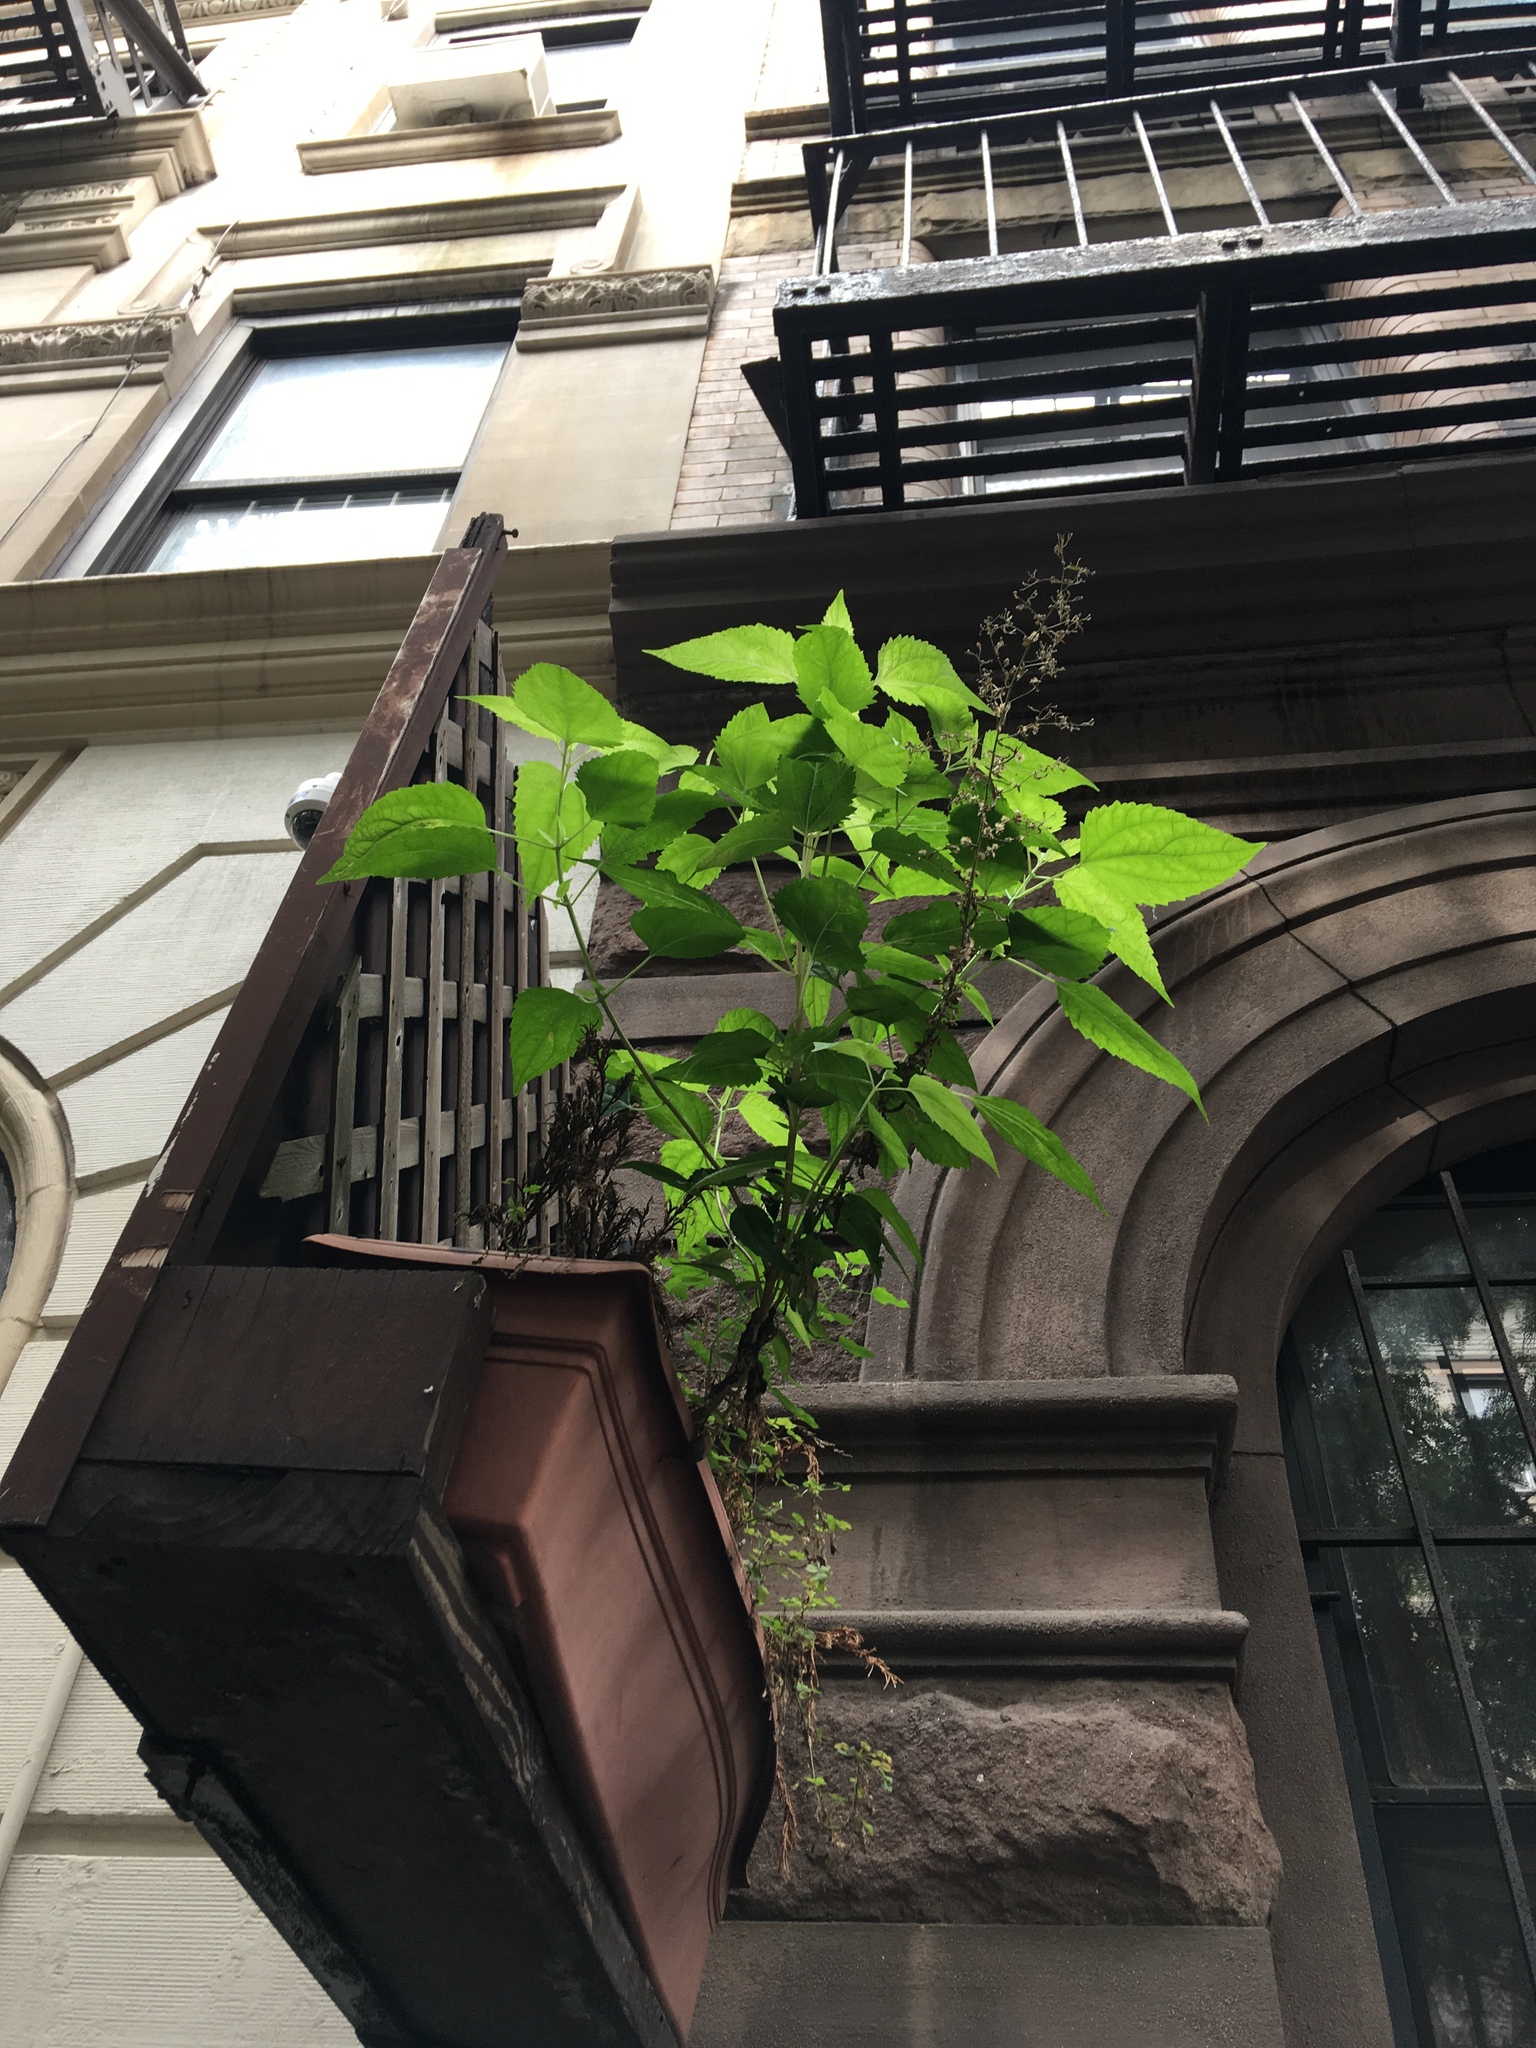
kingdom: Plantae
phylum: Tracheophyta
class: Magnoliopsida
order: Asterales
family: Asteraceae
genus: Ageratina
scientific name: Ageratina altissima
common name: White snakeroot
